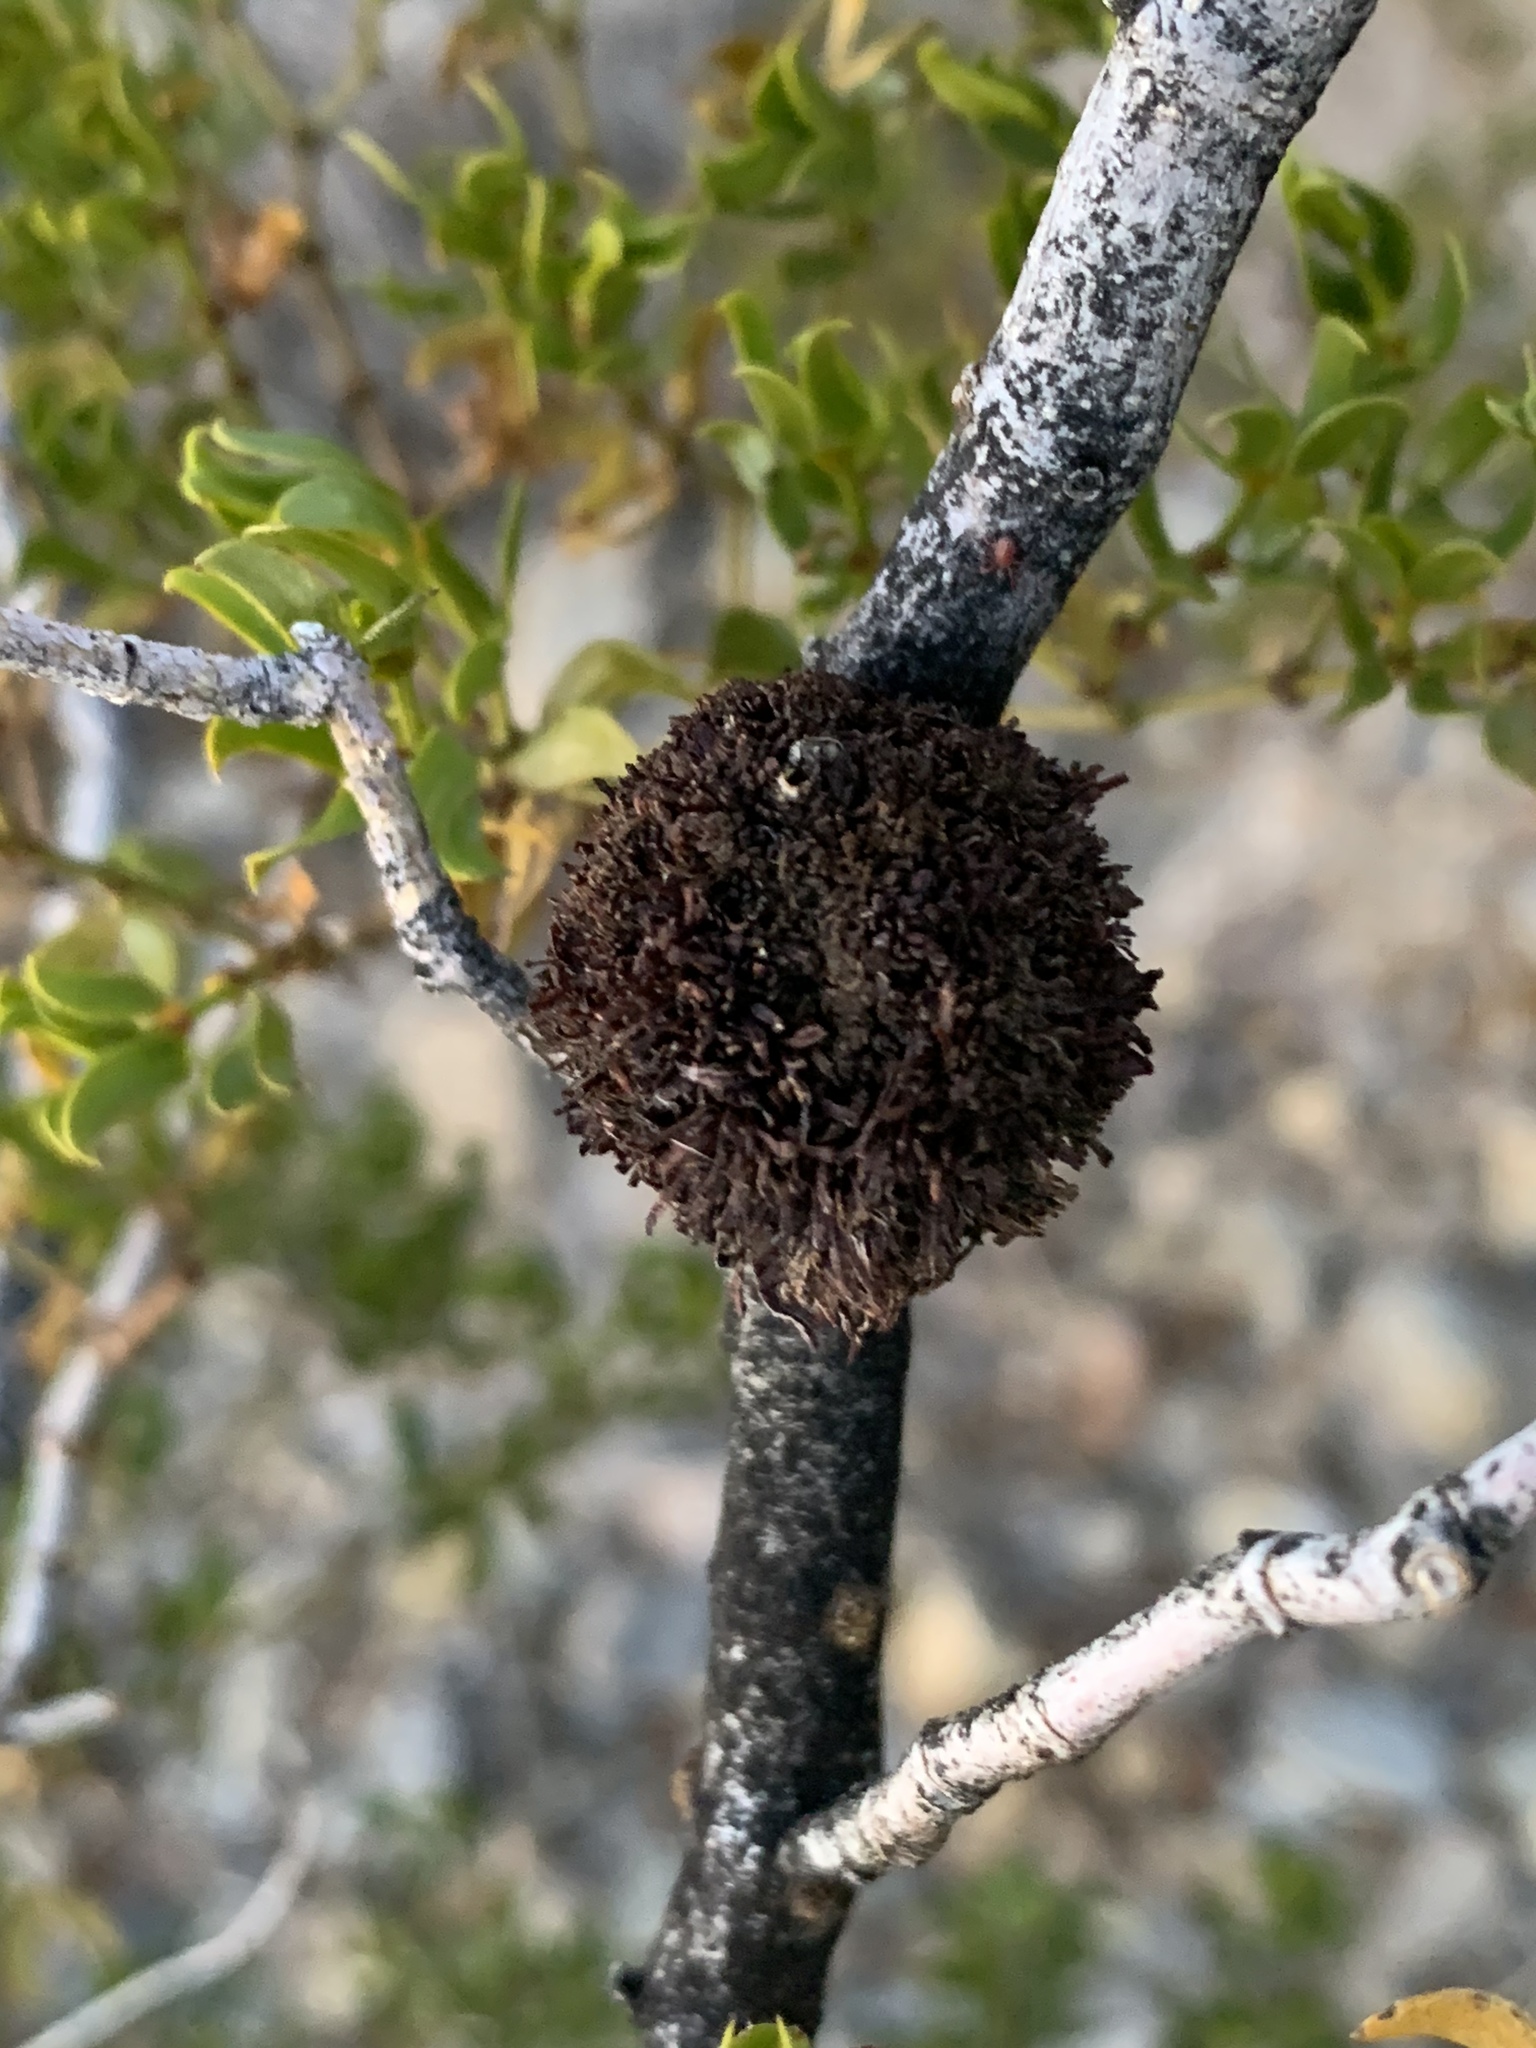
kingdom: Animalia
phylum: Arthropoda
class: Insecta
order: Diptera
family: Cecidomyiidae
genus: Asphondylia
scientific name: Asphondylia auripila
